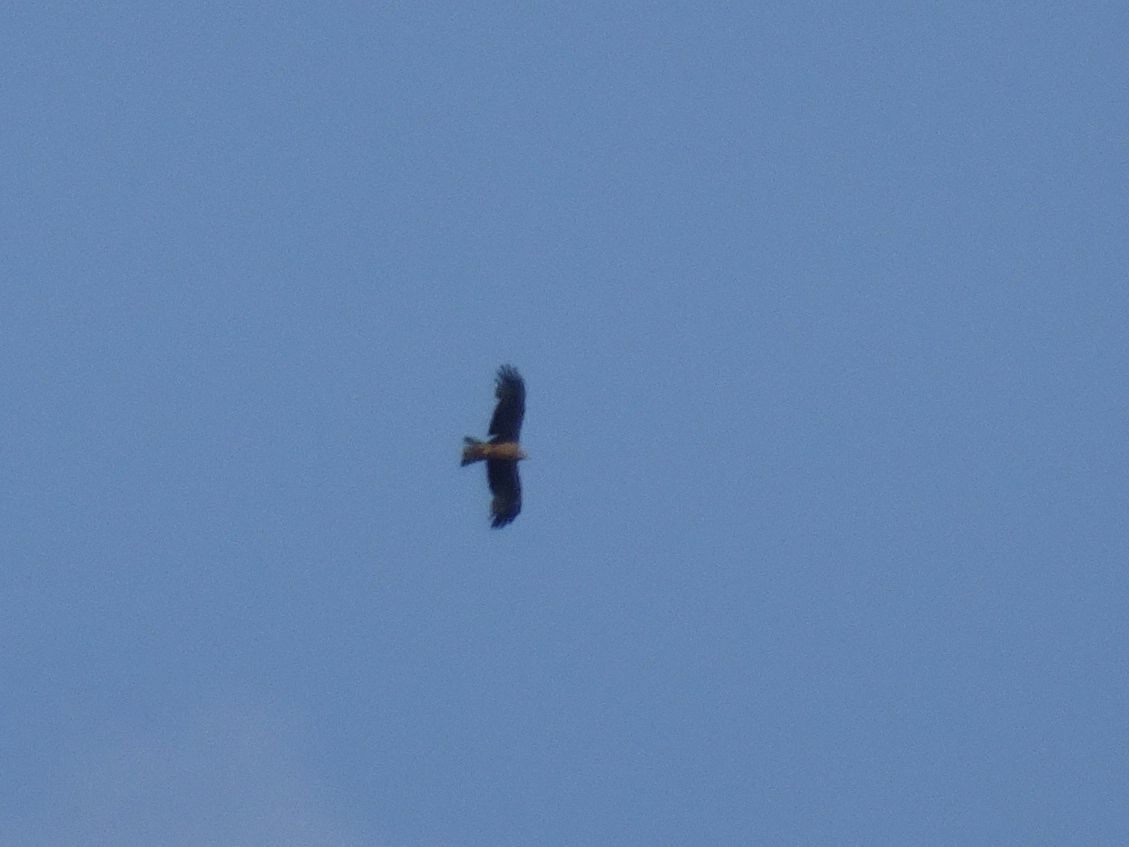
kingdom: Animalia
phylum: Chordata
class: Aves
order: Accipitriformes
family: Accipitridae
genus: Milvus
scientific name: Milvus migrans
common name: Black kite
